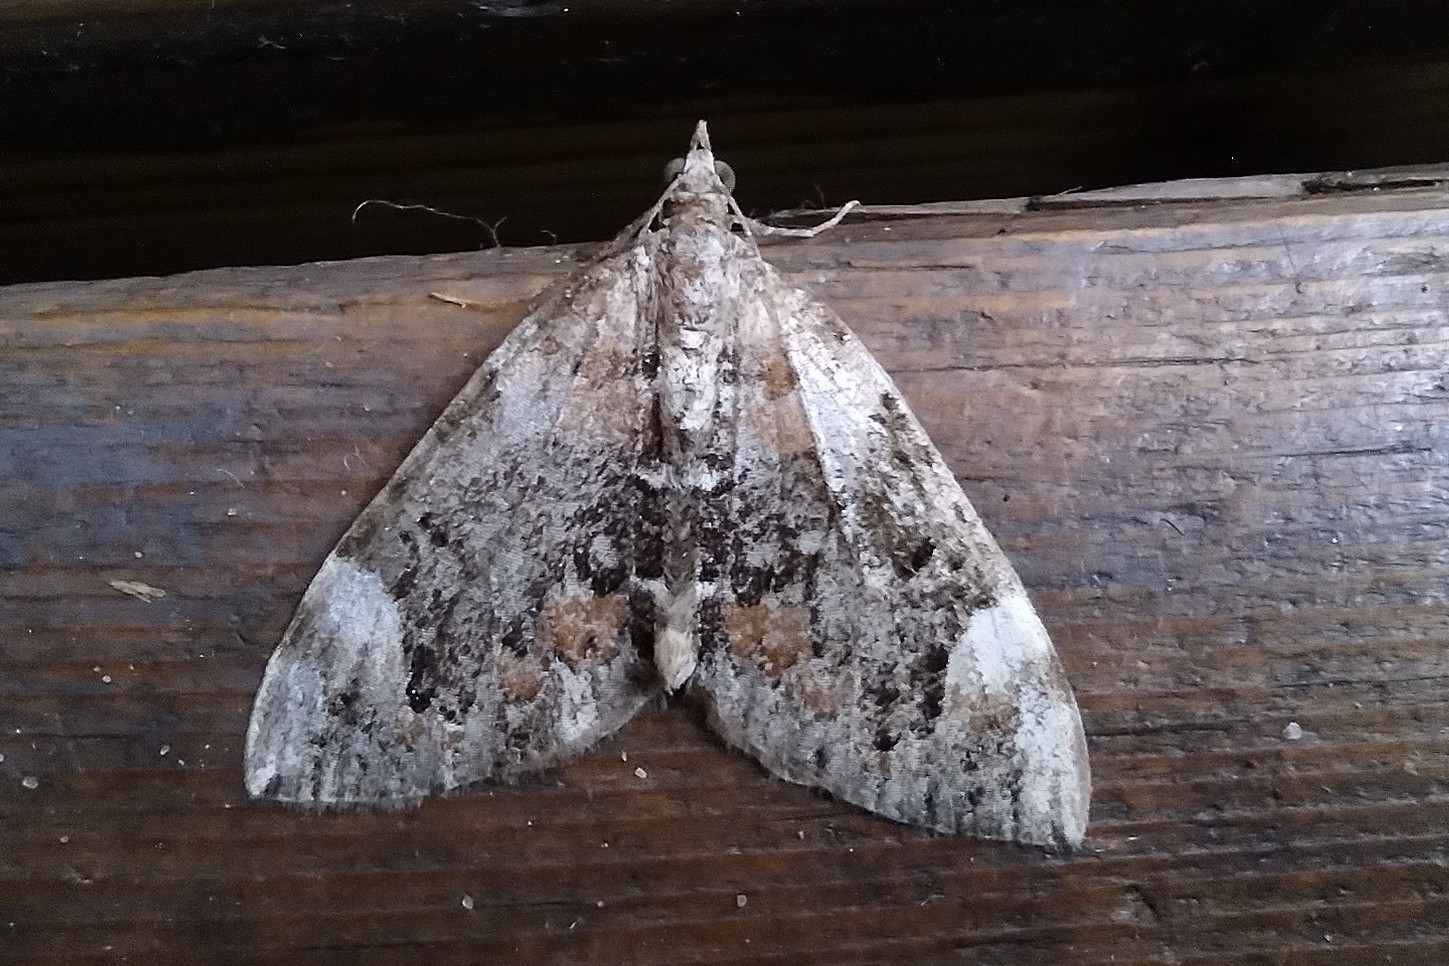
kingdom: Animalia
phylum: Arthropoda
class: Insecta
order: Lepidoptera
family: Geometridae
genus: Dysstroma
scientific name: Dysstroma citrata
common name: Dark marbled carpet
